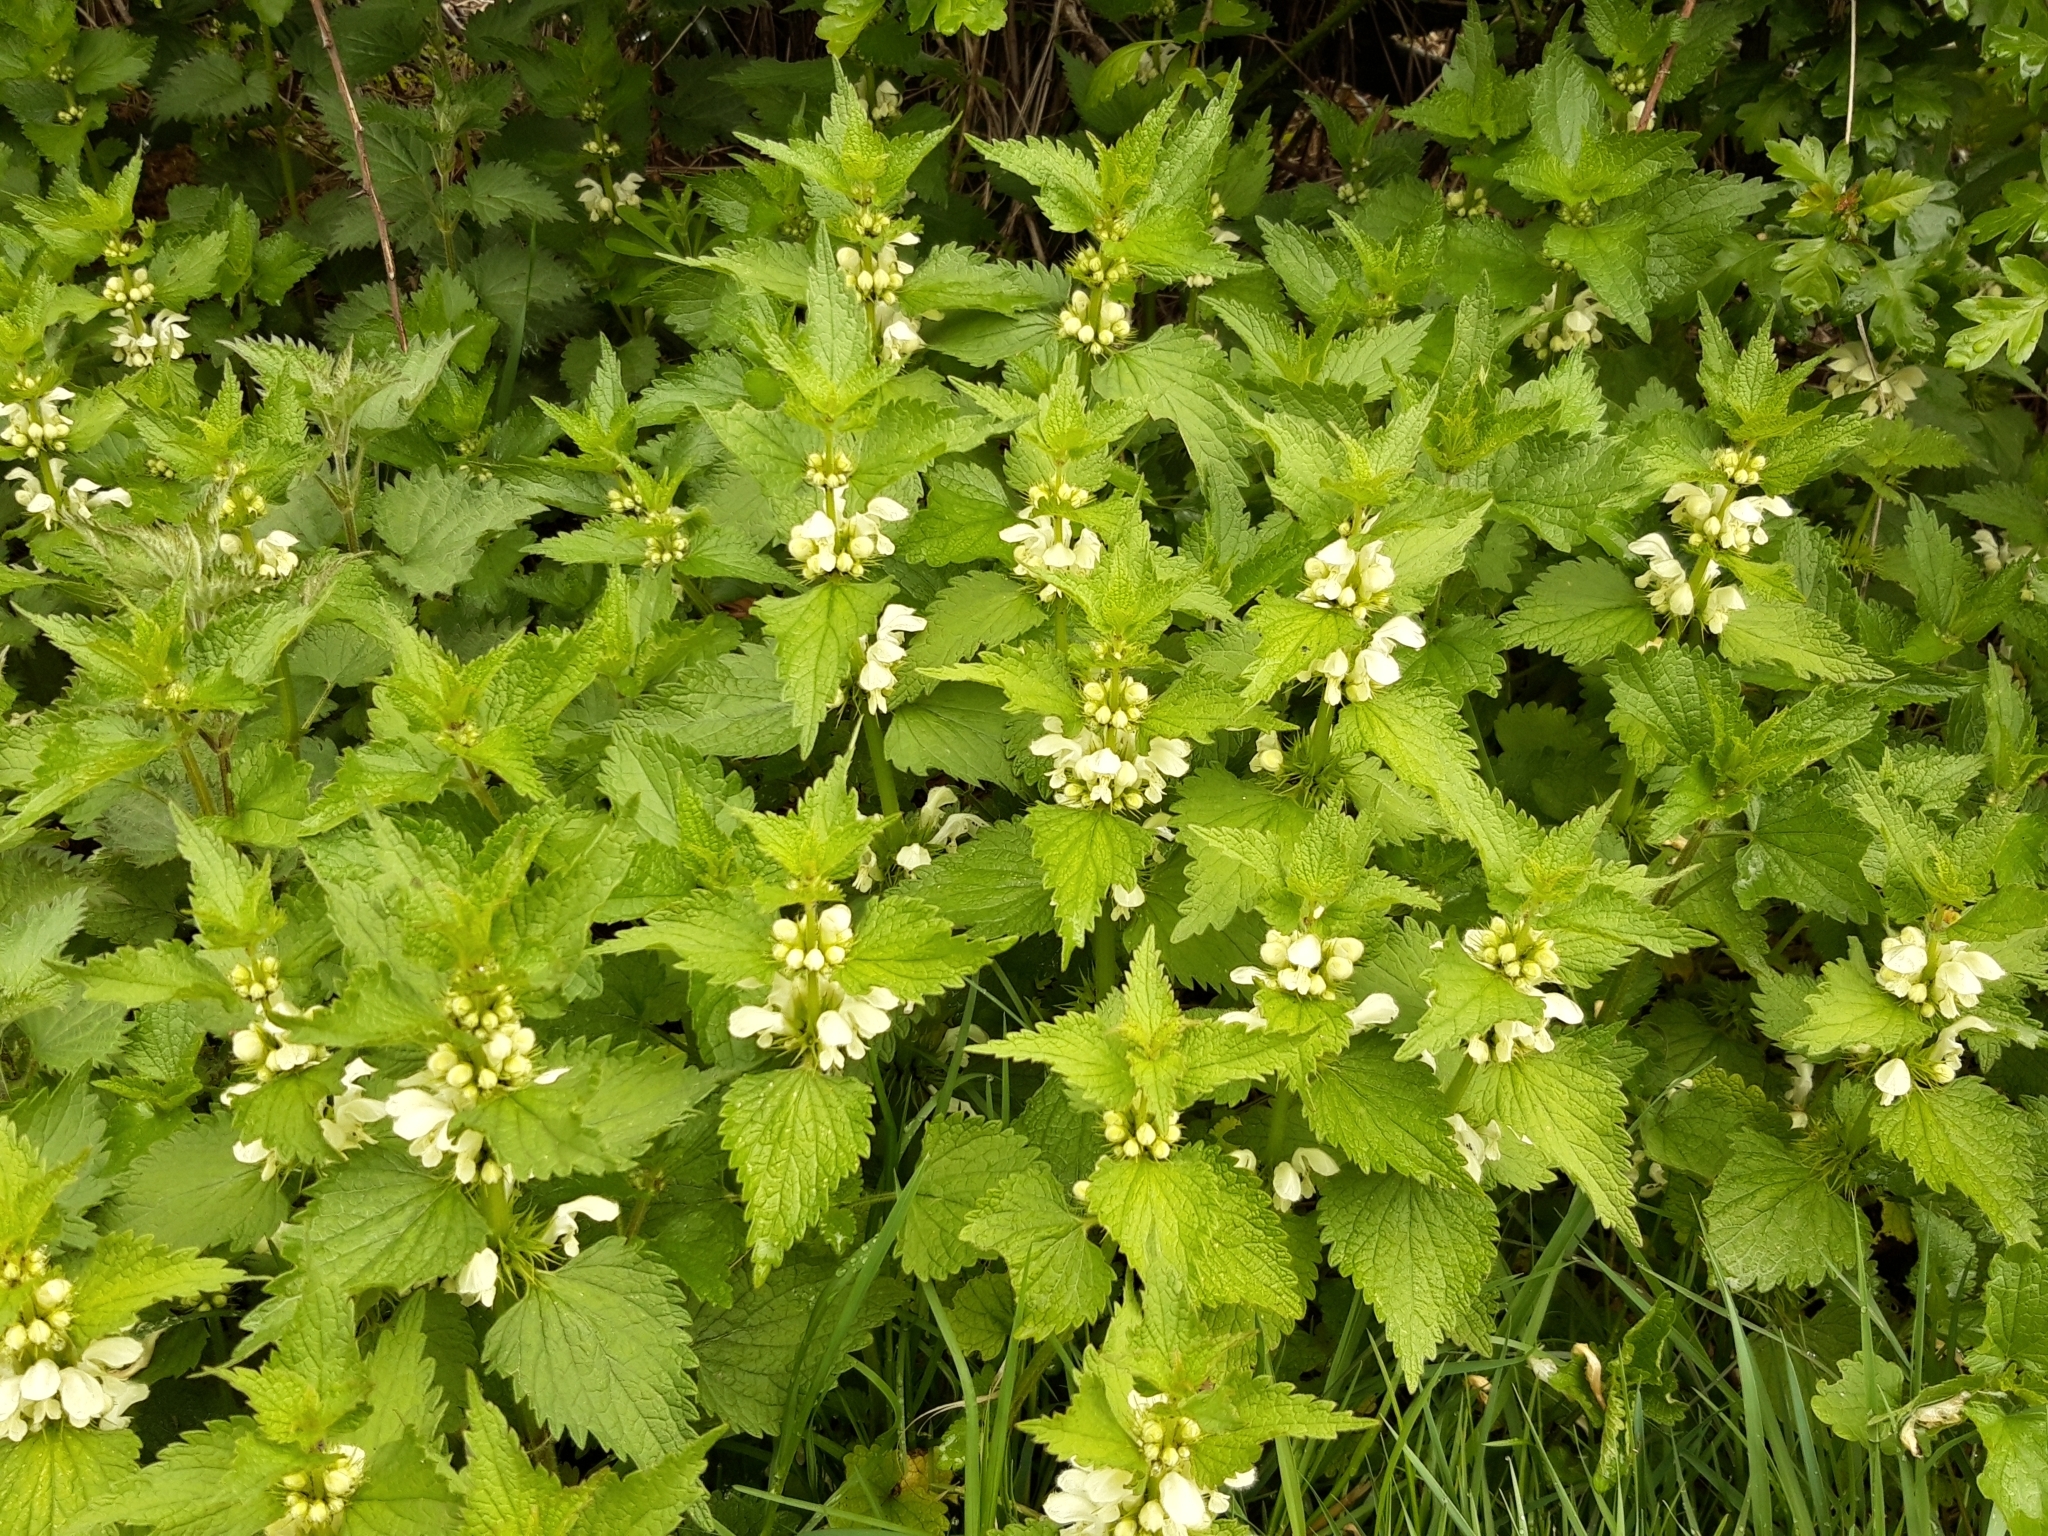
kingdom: Plantae
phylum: Tracheophyta
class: Magnoliopsida
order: Lamiales
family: Lamiaceae
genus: Lamium
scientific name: Lamium album
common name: White dead-nettle
